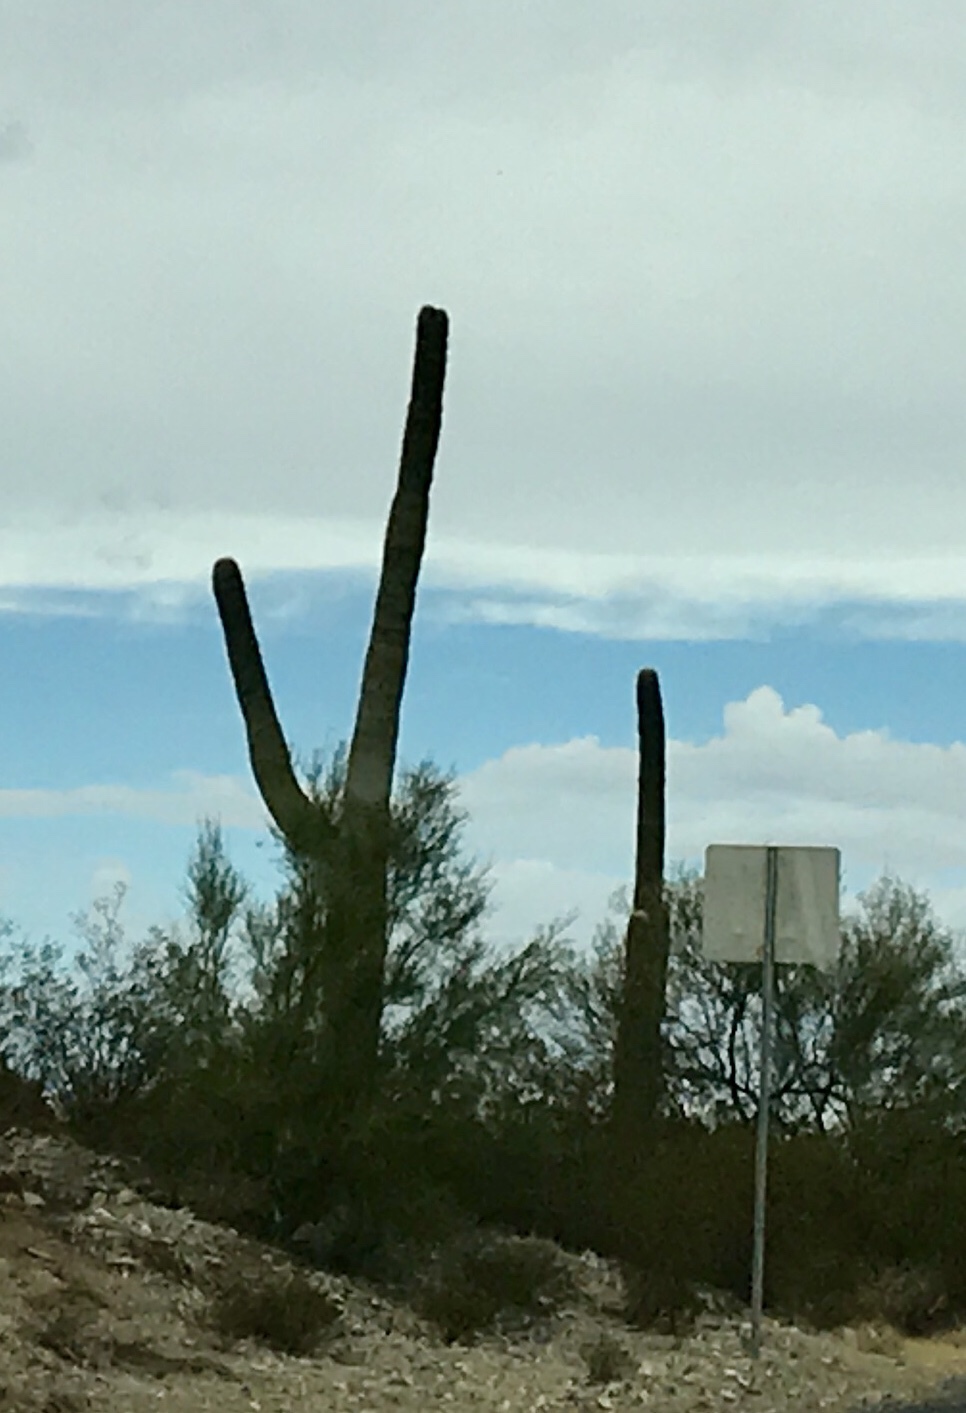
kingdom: Plantae
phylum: Tracheophyta
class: Magnoliopsida
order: Caryophyllales
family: Cactaceae
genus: Carnegiea
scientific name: Carnegiea gigantea
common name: Saguaro
